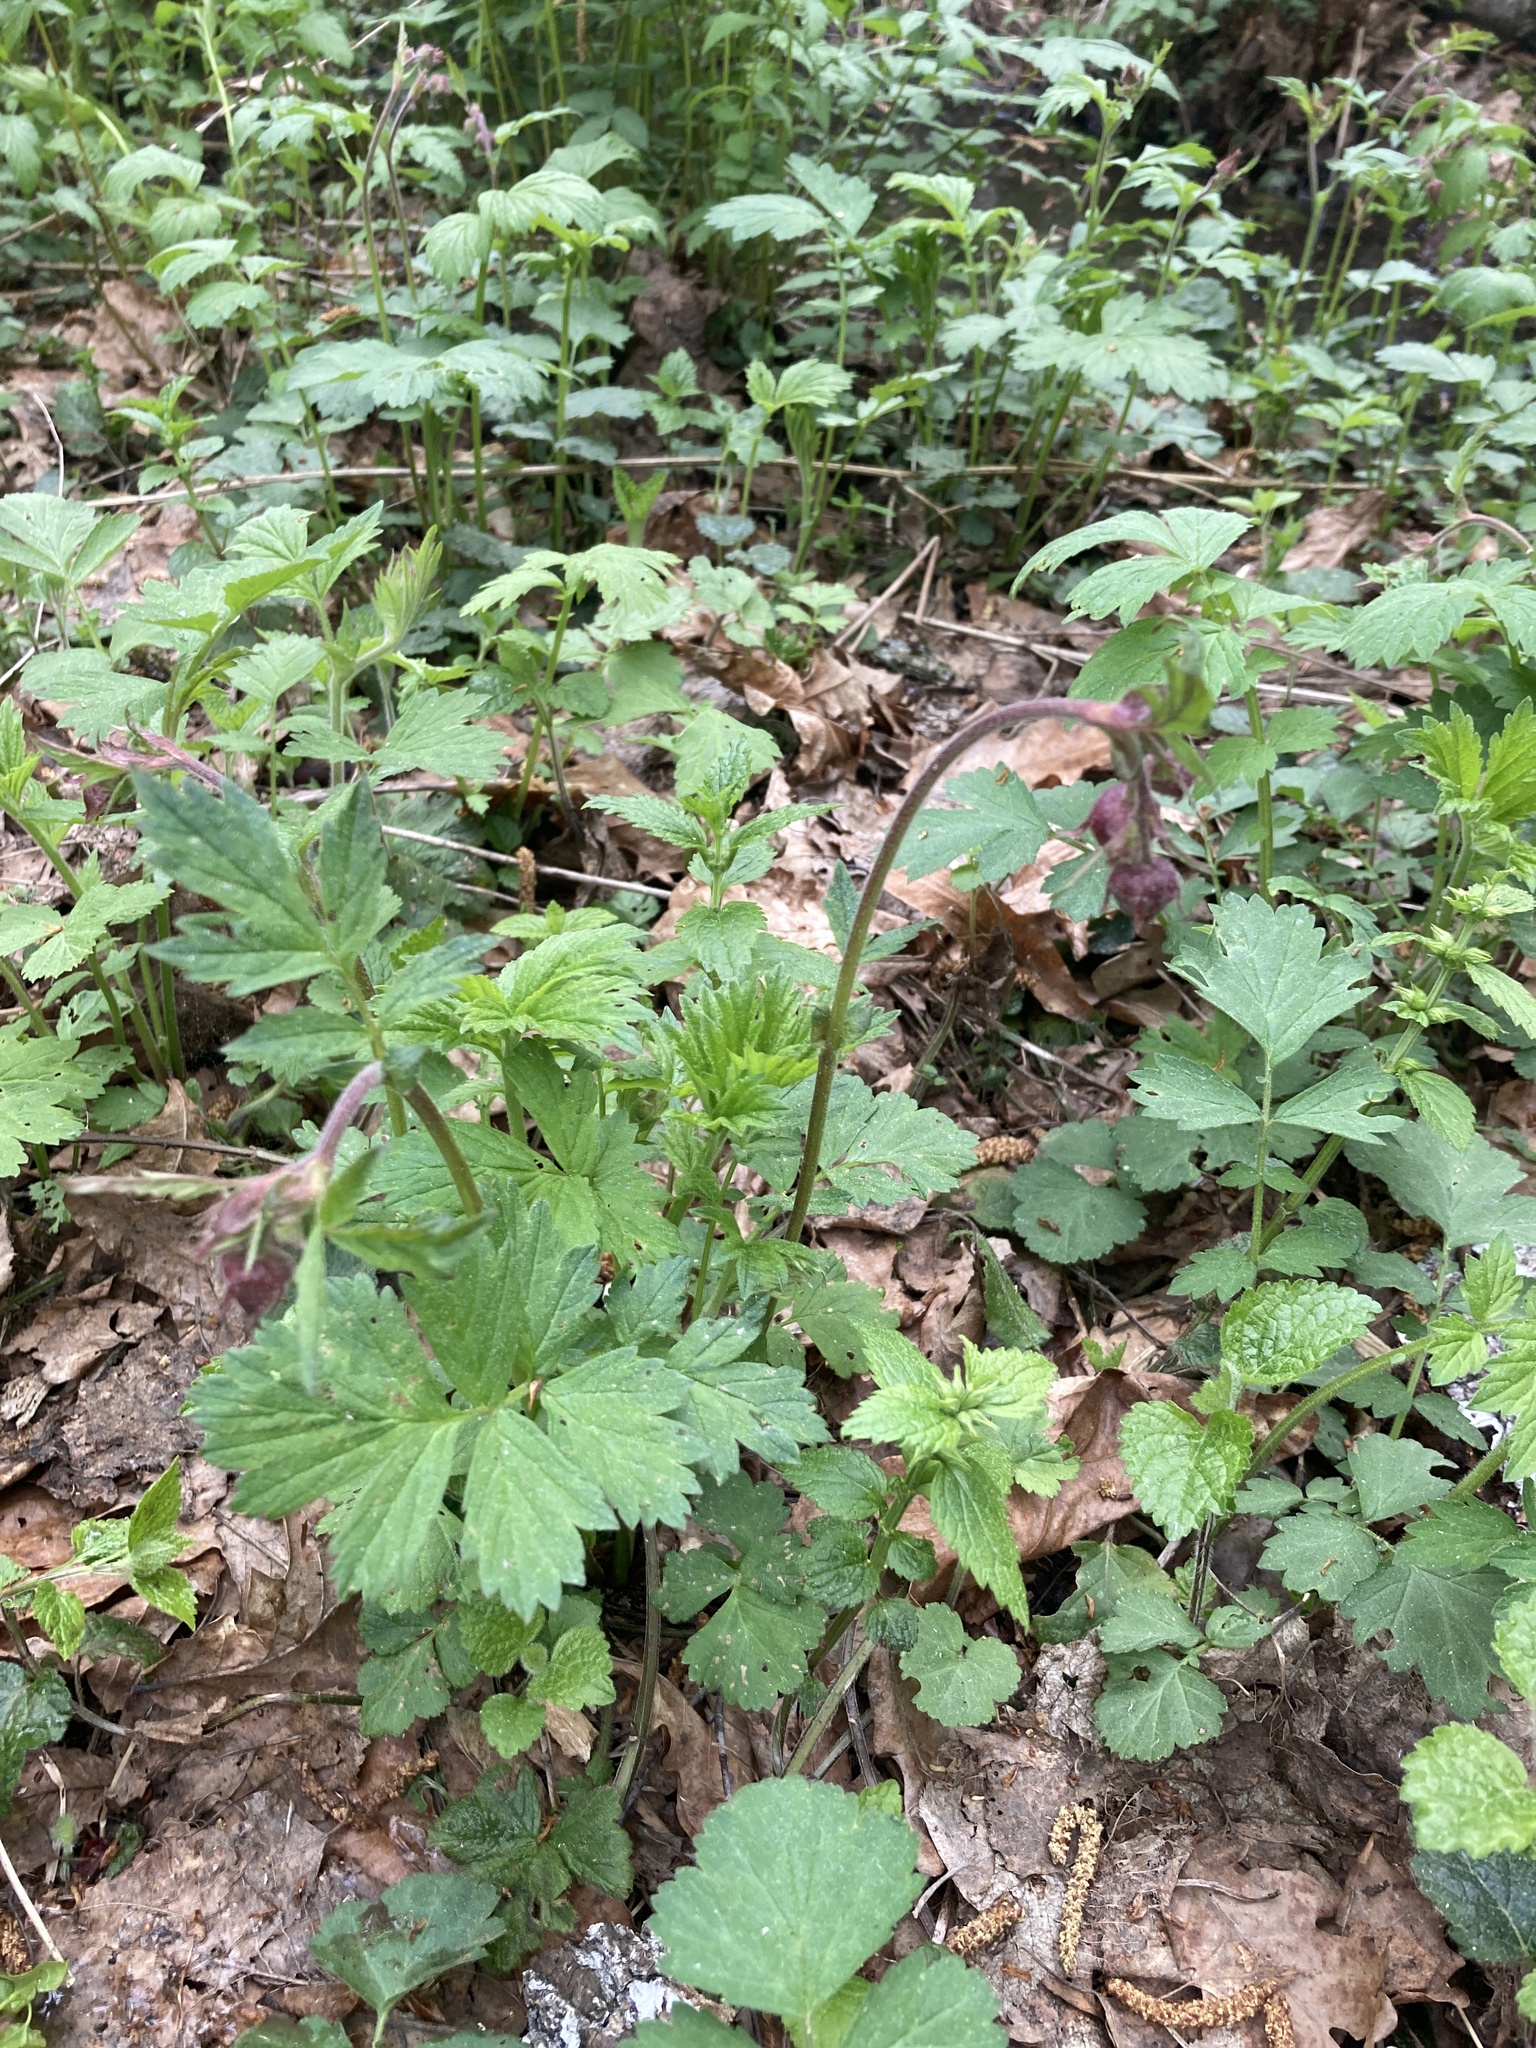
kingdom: Plantae
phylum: Tracheophyta
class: Magnoliopsida
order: Rosales
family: Rosaceae
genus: Geum
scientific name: Geum rivale
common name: Water avens
